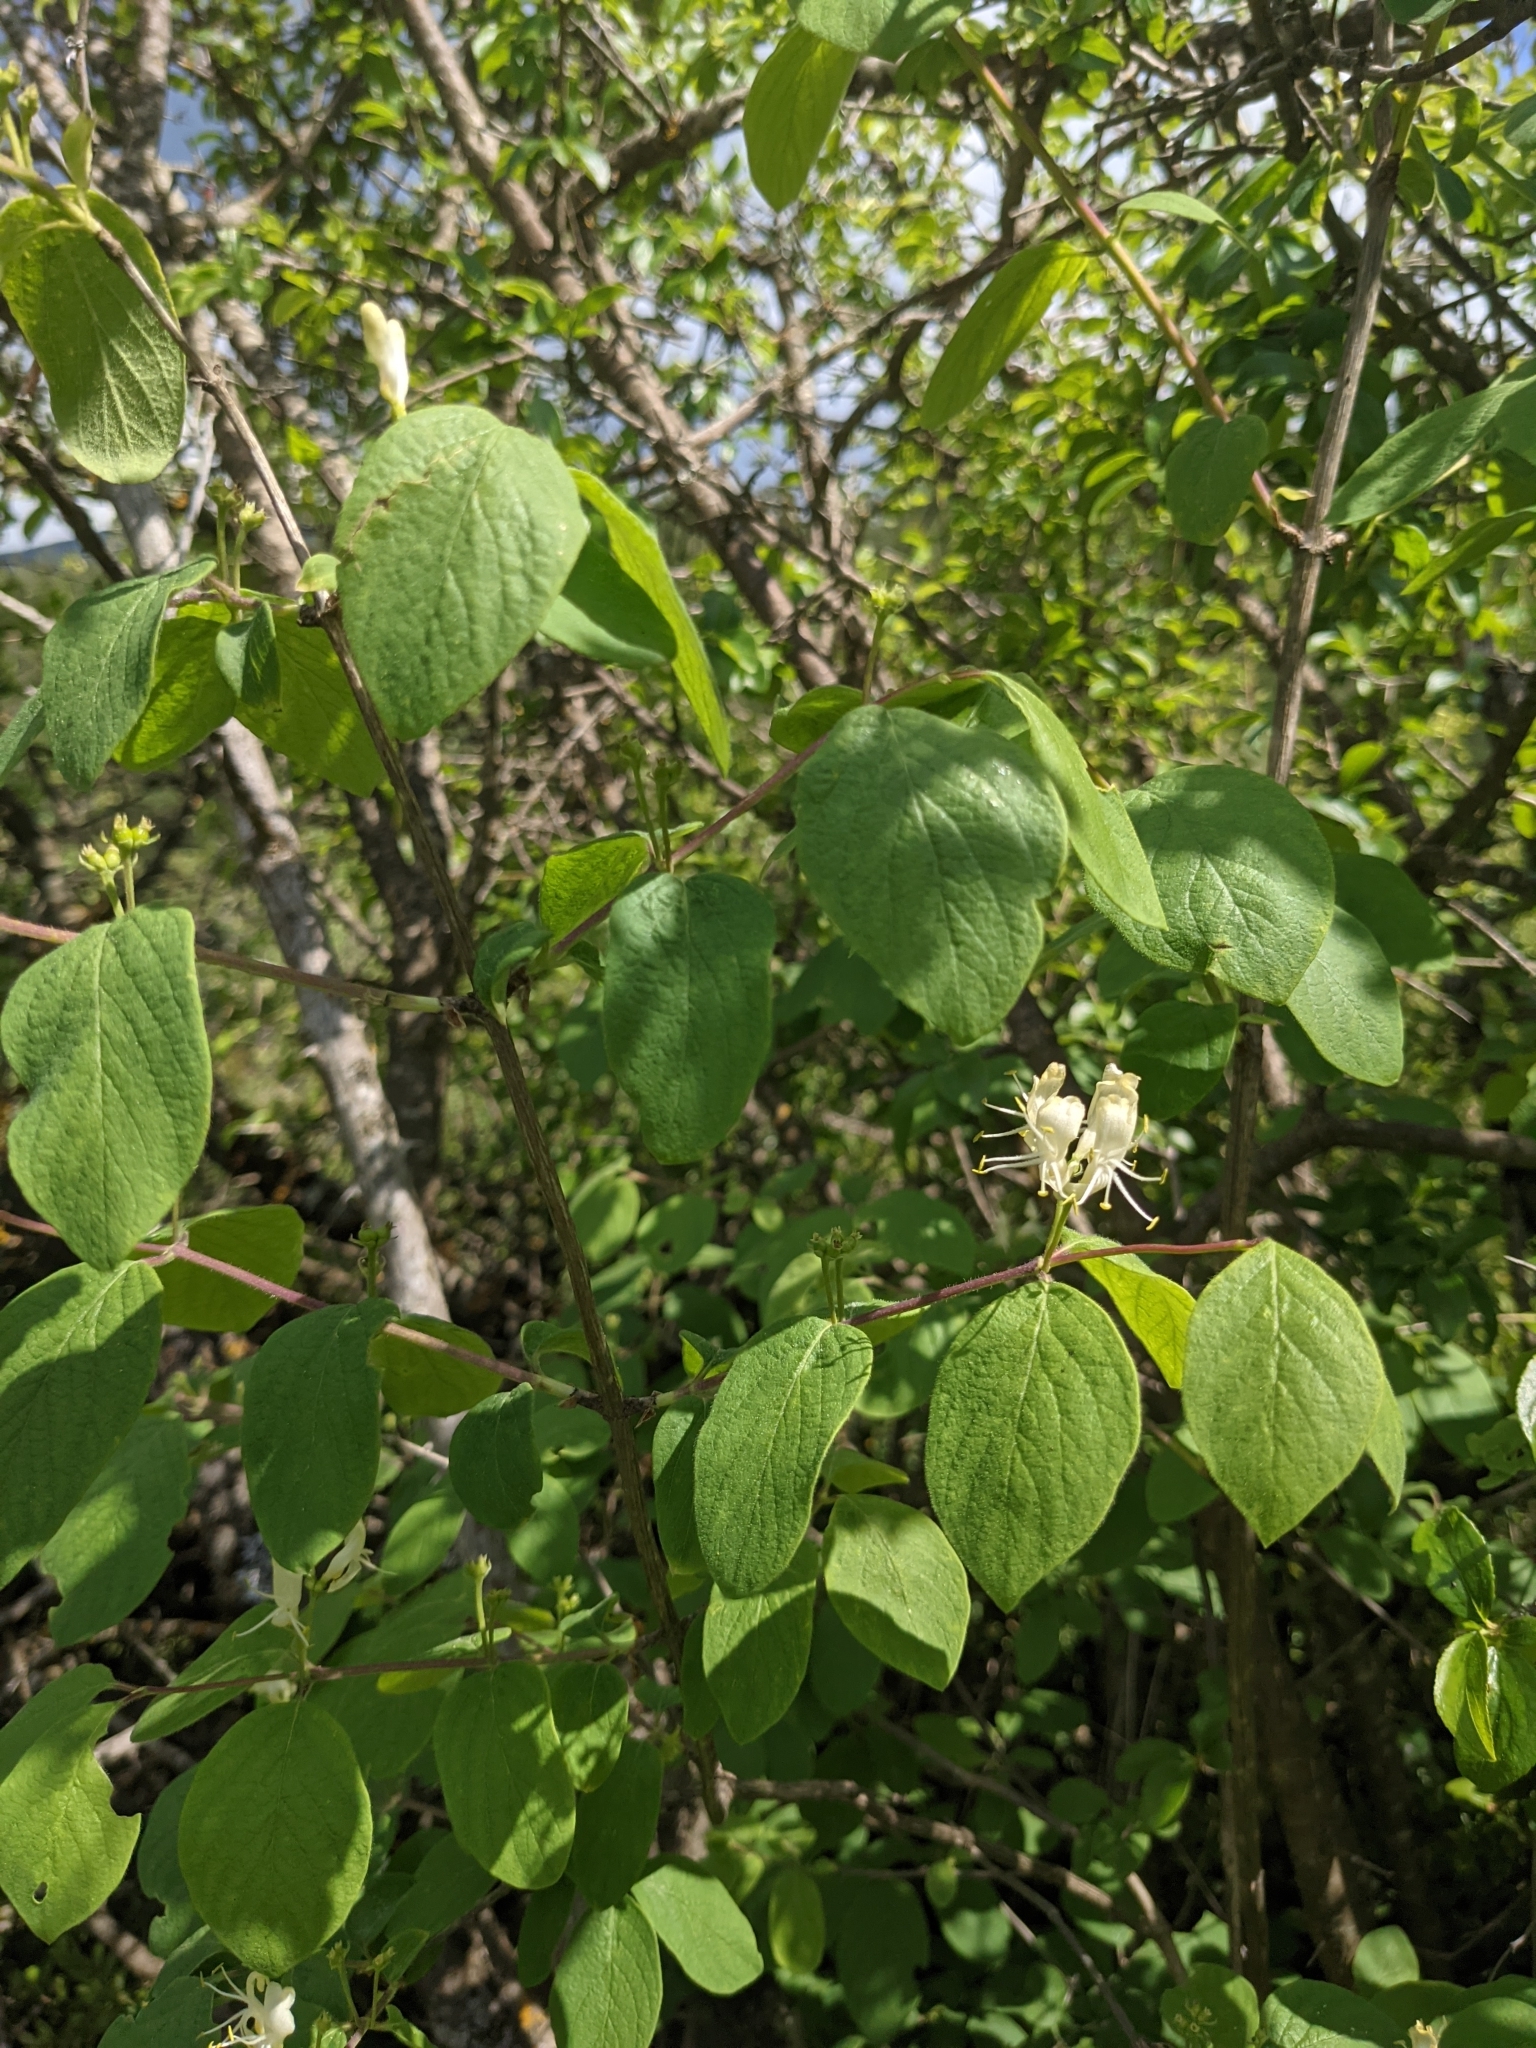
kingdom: Plantae
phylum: Tracheophyta
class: Magnoliopsida
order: Dipsacales
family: Caprifoliaceae
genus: Lonicera
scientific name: Lonicera xylosteum
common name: Fly honeysuckle
